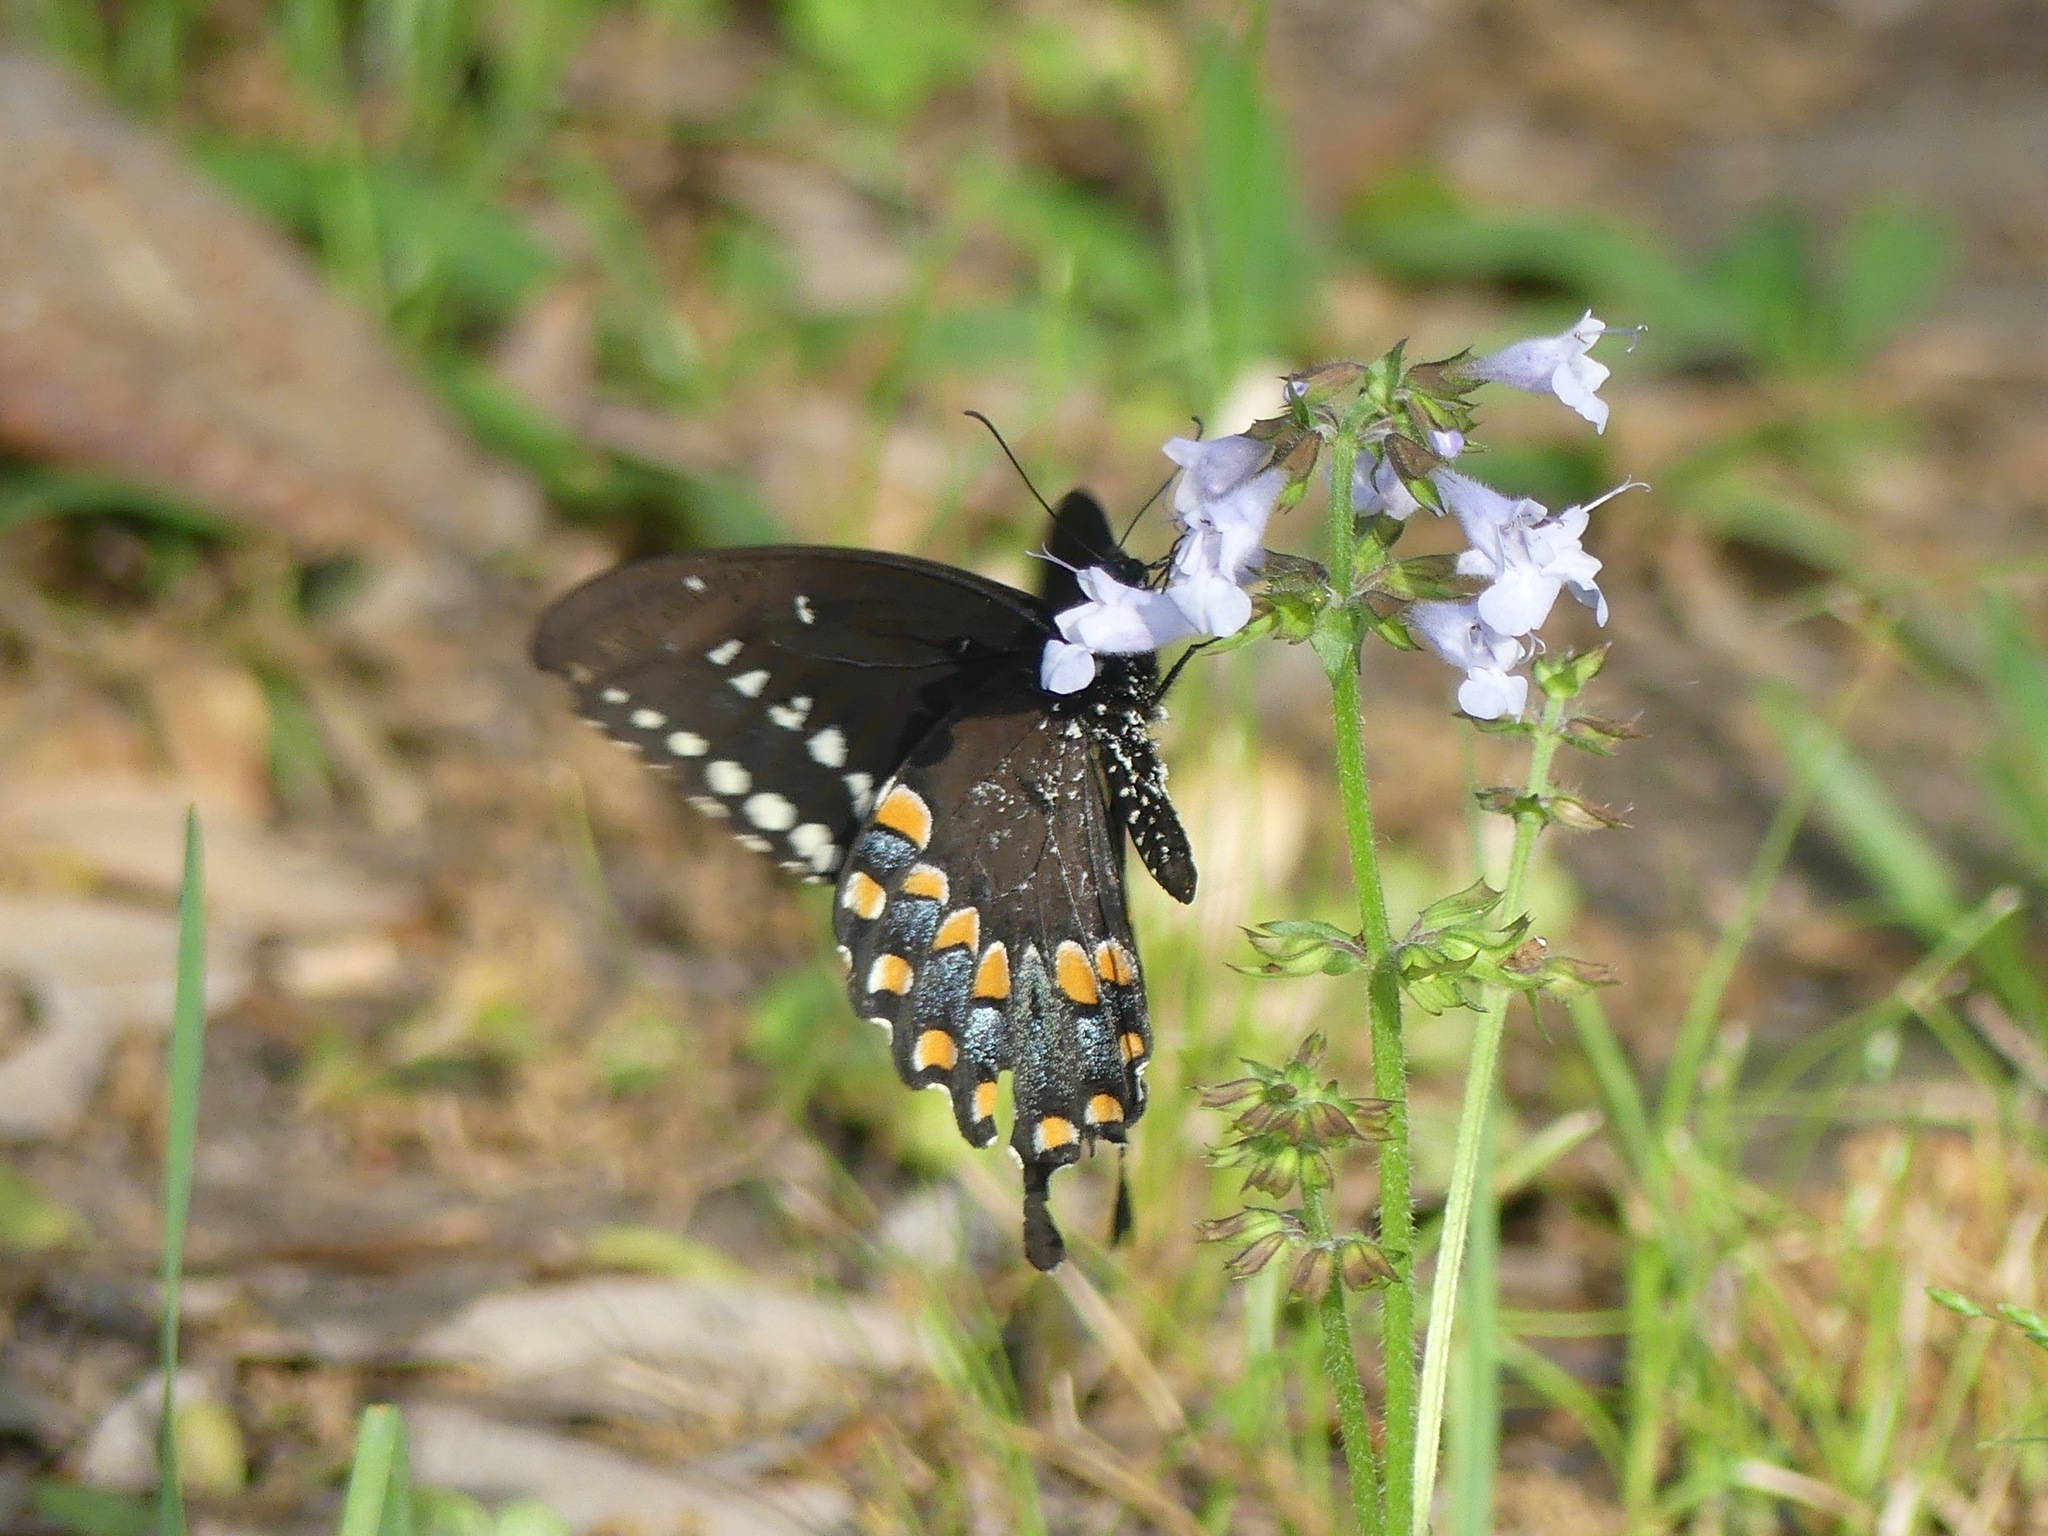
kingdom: Animalia
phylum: Arthropoda
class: Insecta
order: Lepidoptera
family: Papilionidae
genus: Papilio
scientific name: Papilio troilus
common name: Spicebush swallowtail
